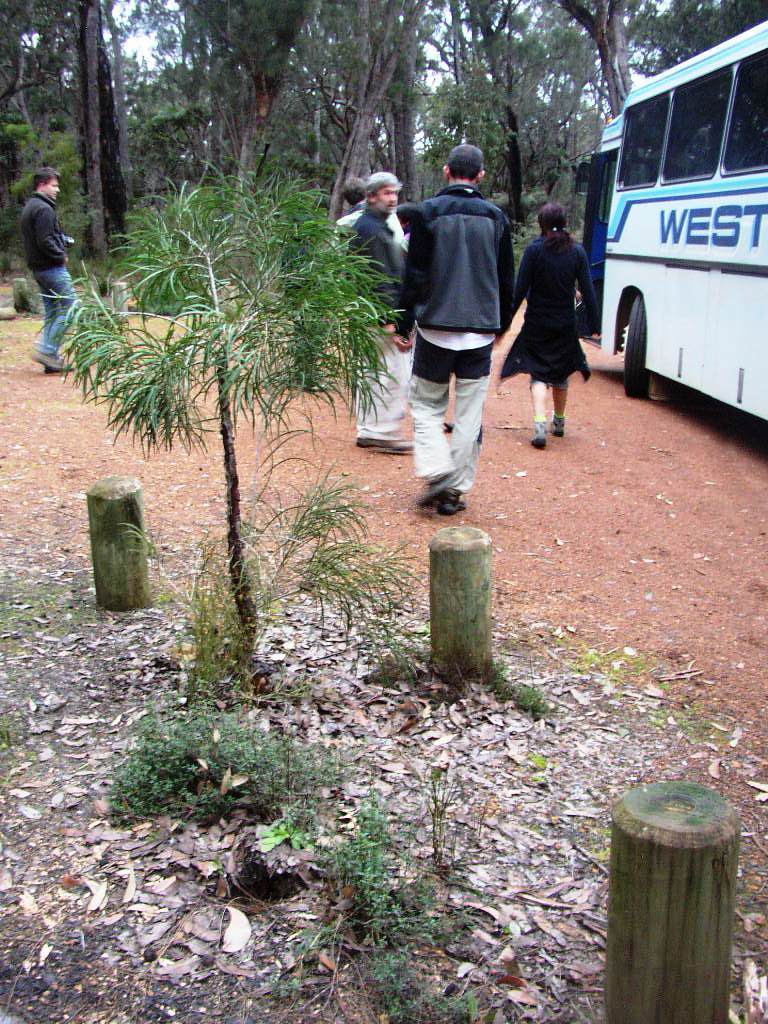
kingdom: Plantae
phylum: Tracheophyta
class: Magnoliopsida
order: Proteales
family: Proteaceae
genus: Persoonia
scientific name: Persoonia longifolia
